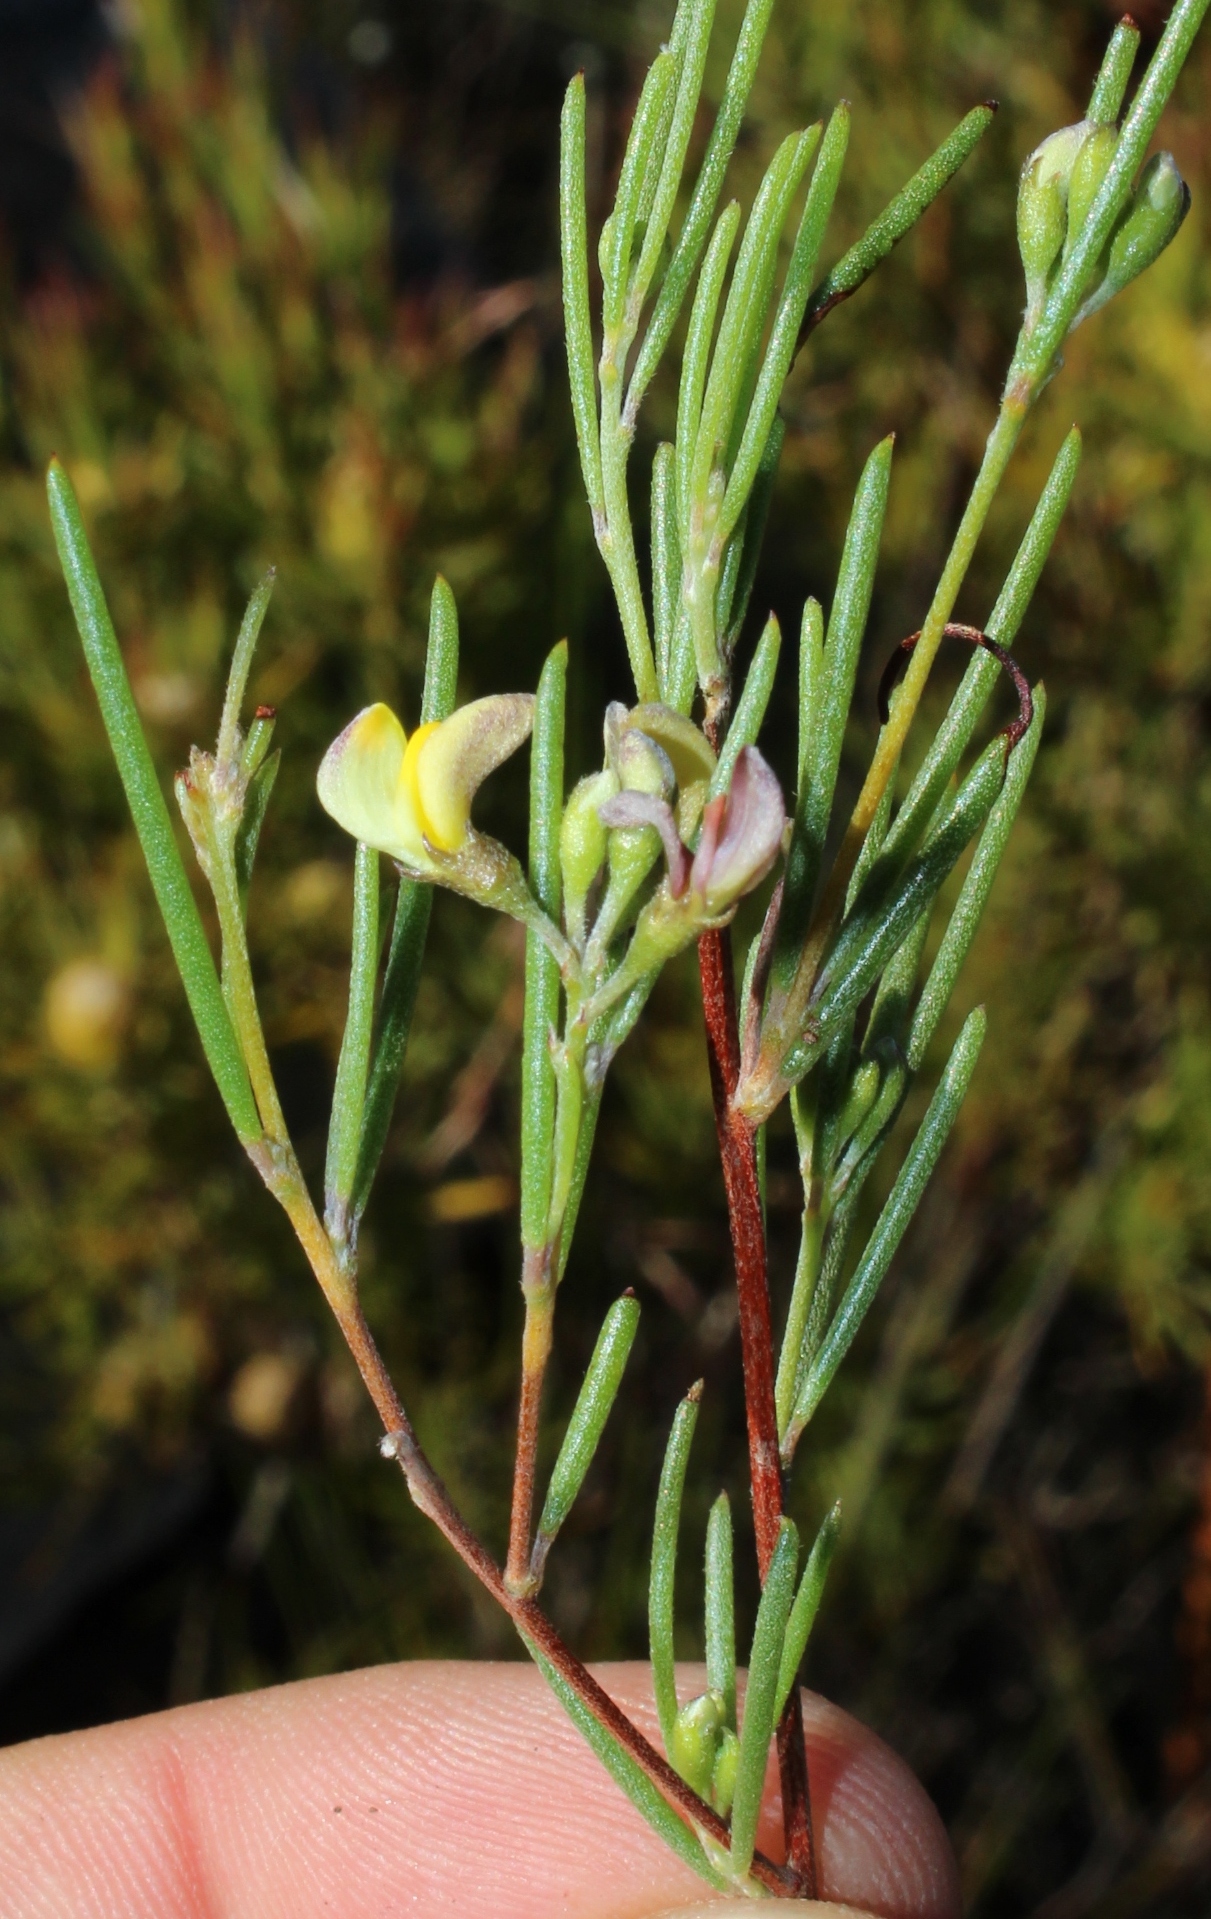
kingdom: Plantae
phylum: Tracheophyta
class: Magnoliopsida
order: Fabales
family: Fabaceae
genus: Aspalathus
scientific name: Aspalathus linearis
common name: Rooibos-tea
